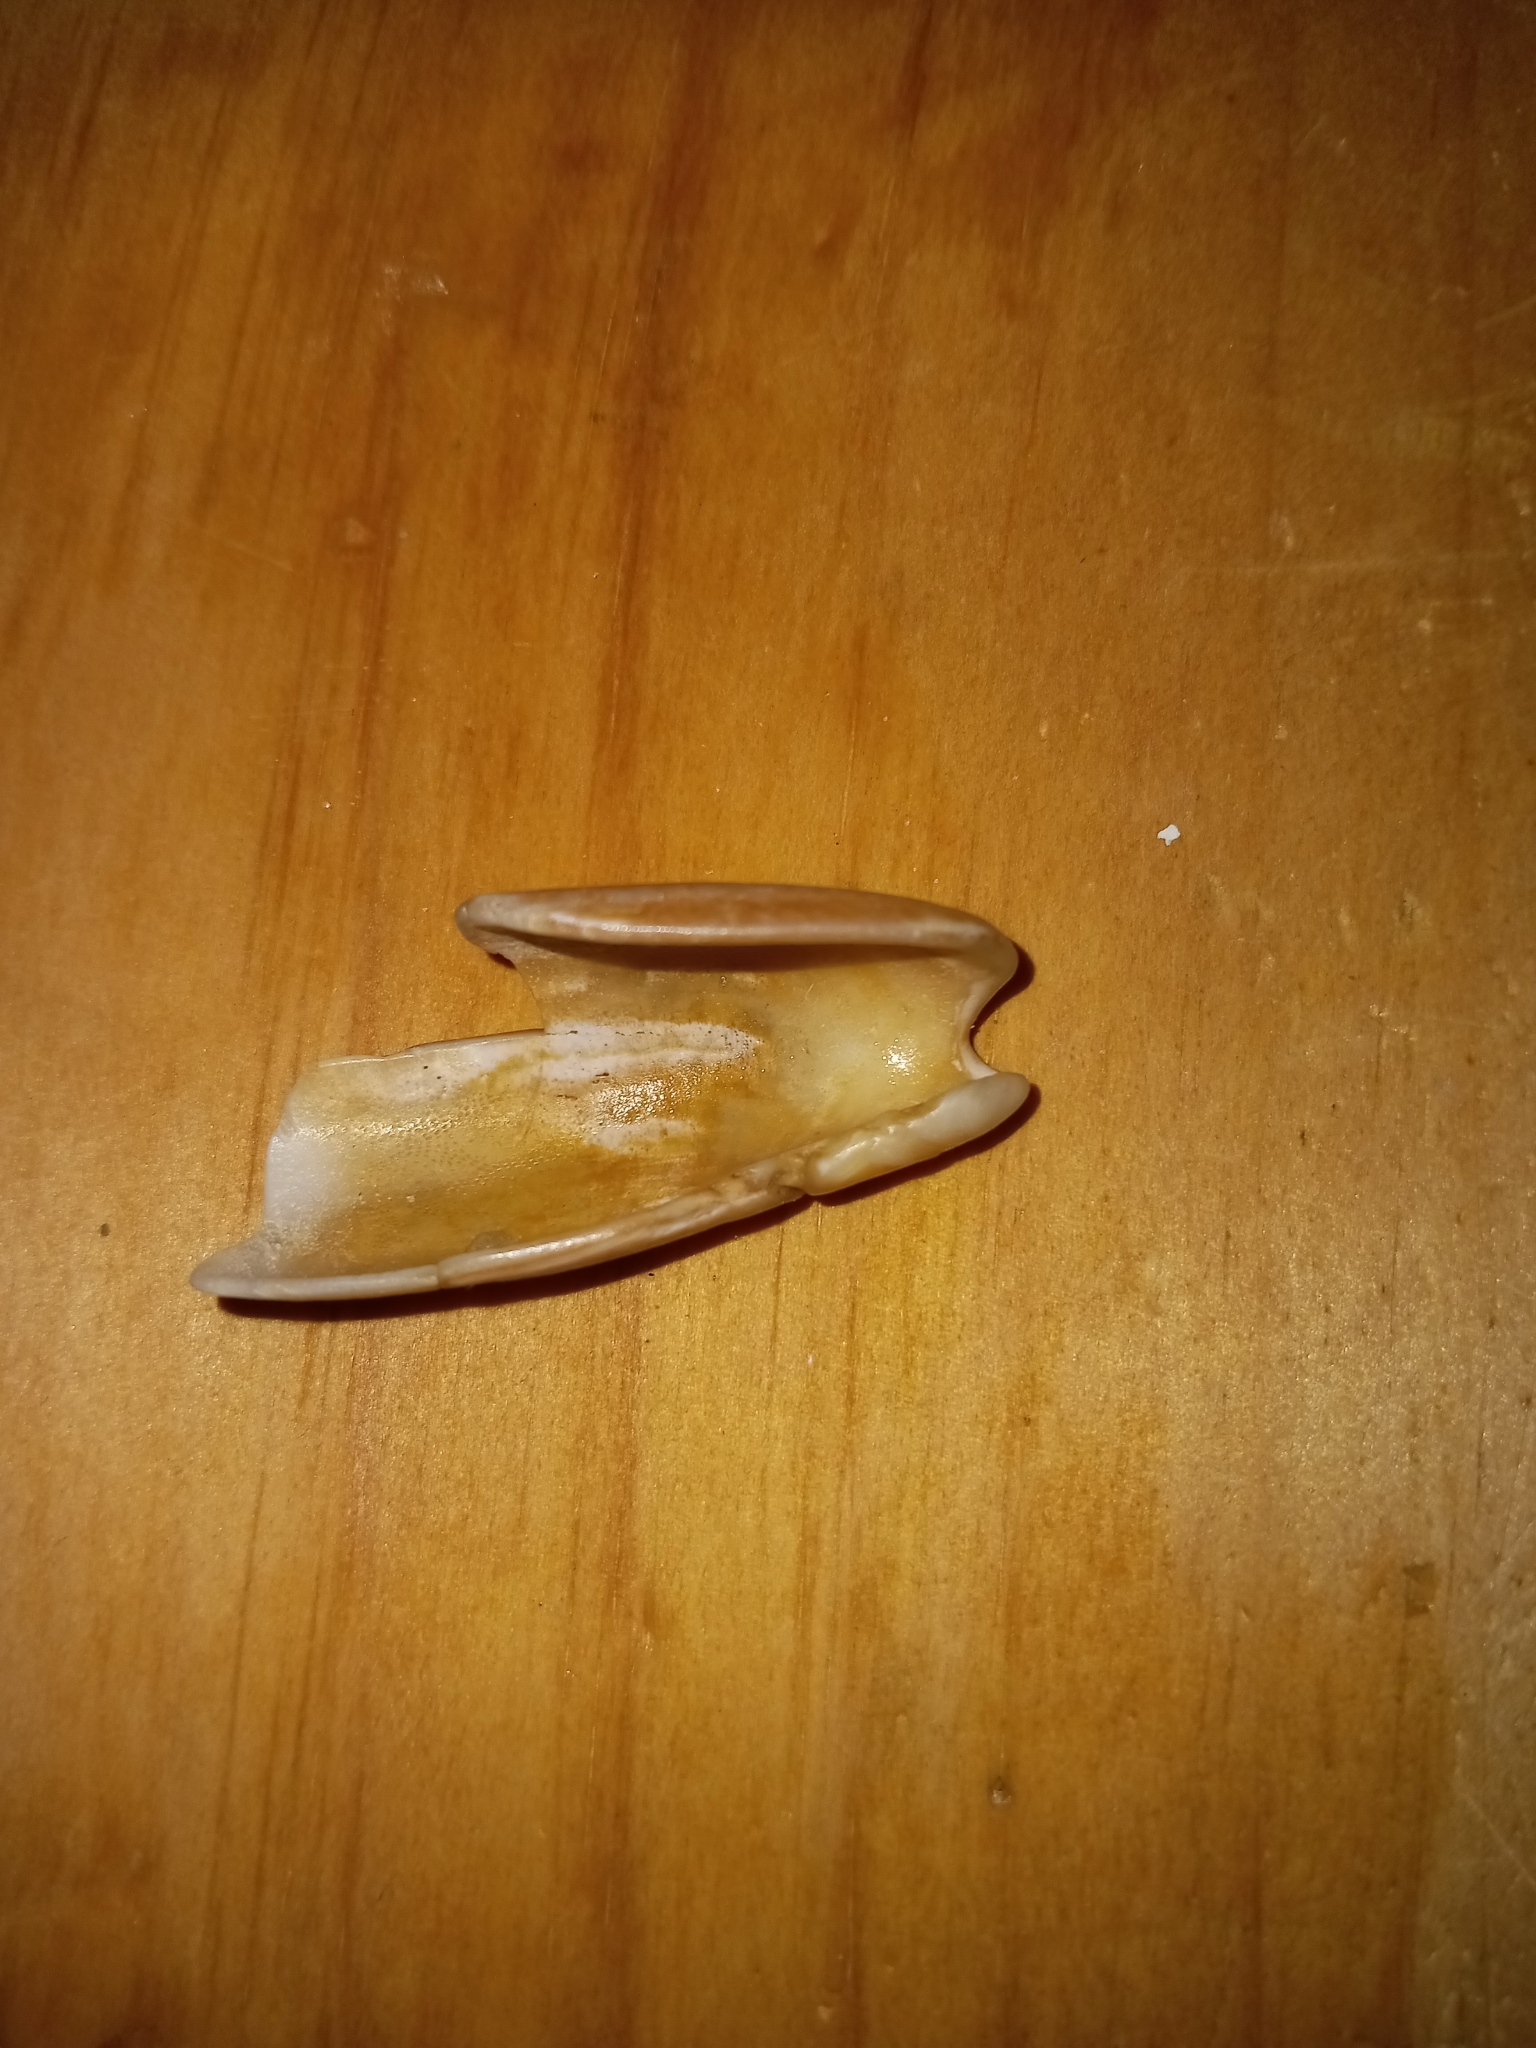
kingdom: Animalia
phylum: Mollusca
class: Gastropoda
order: Neogastropoda
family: Olividae
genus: Oliva
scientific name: Oliva sayana
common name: Lettered olive
